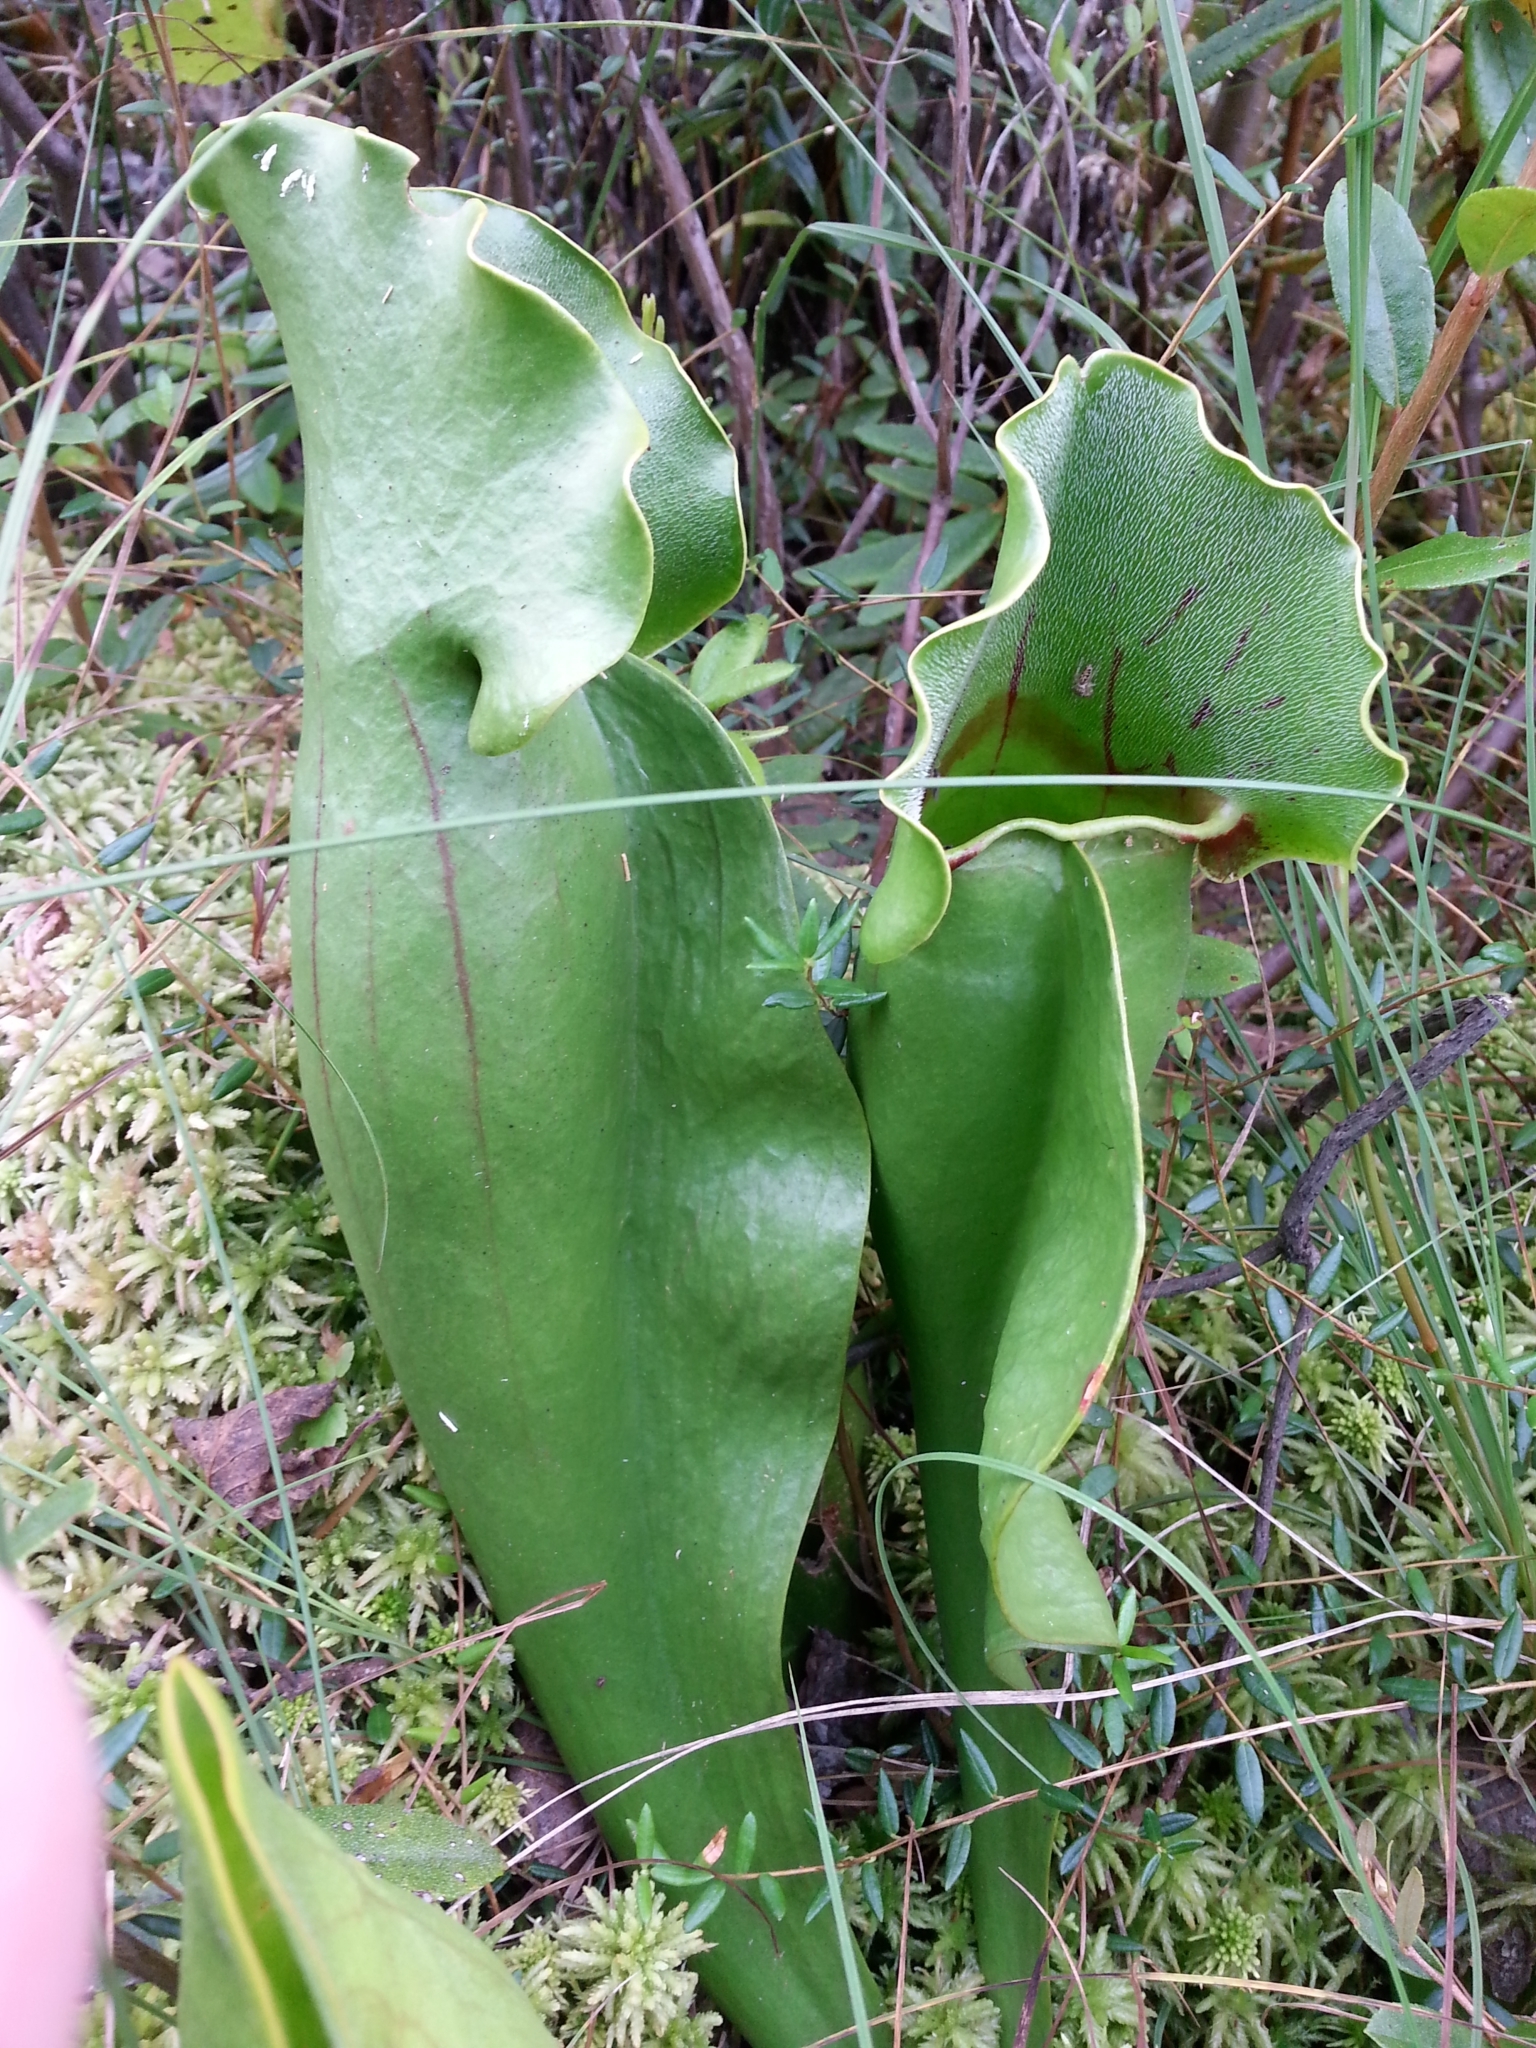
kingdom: Plantae
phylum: Tracheophyta
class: Magnoliopsida
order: Ericales
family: Sarraceniaceae
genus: Sarracenia
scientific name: Sarracenia purpurea
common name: Pitcherplant
